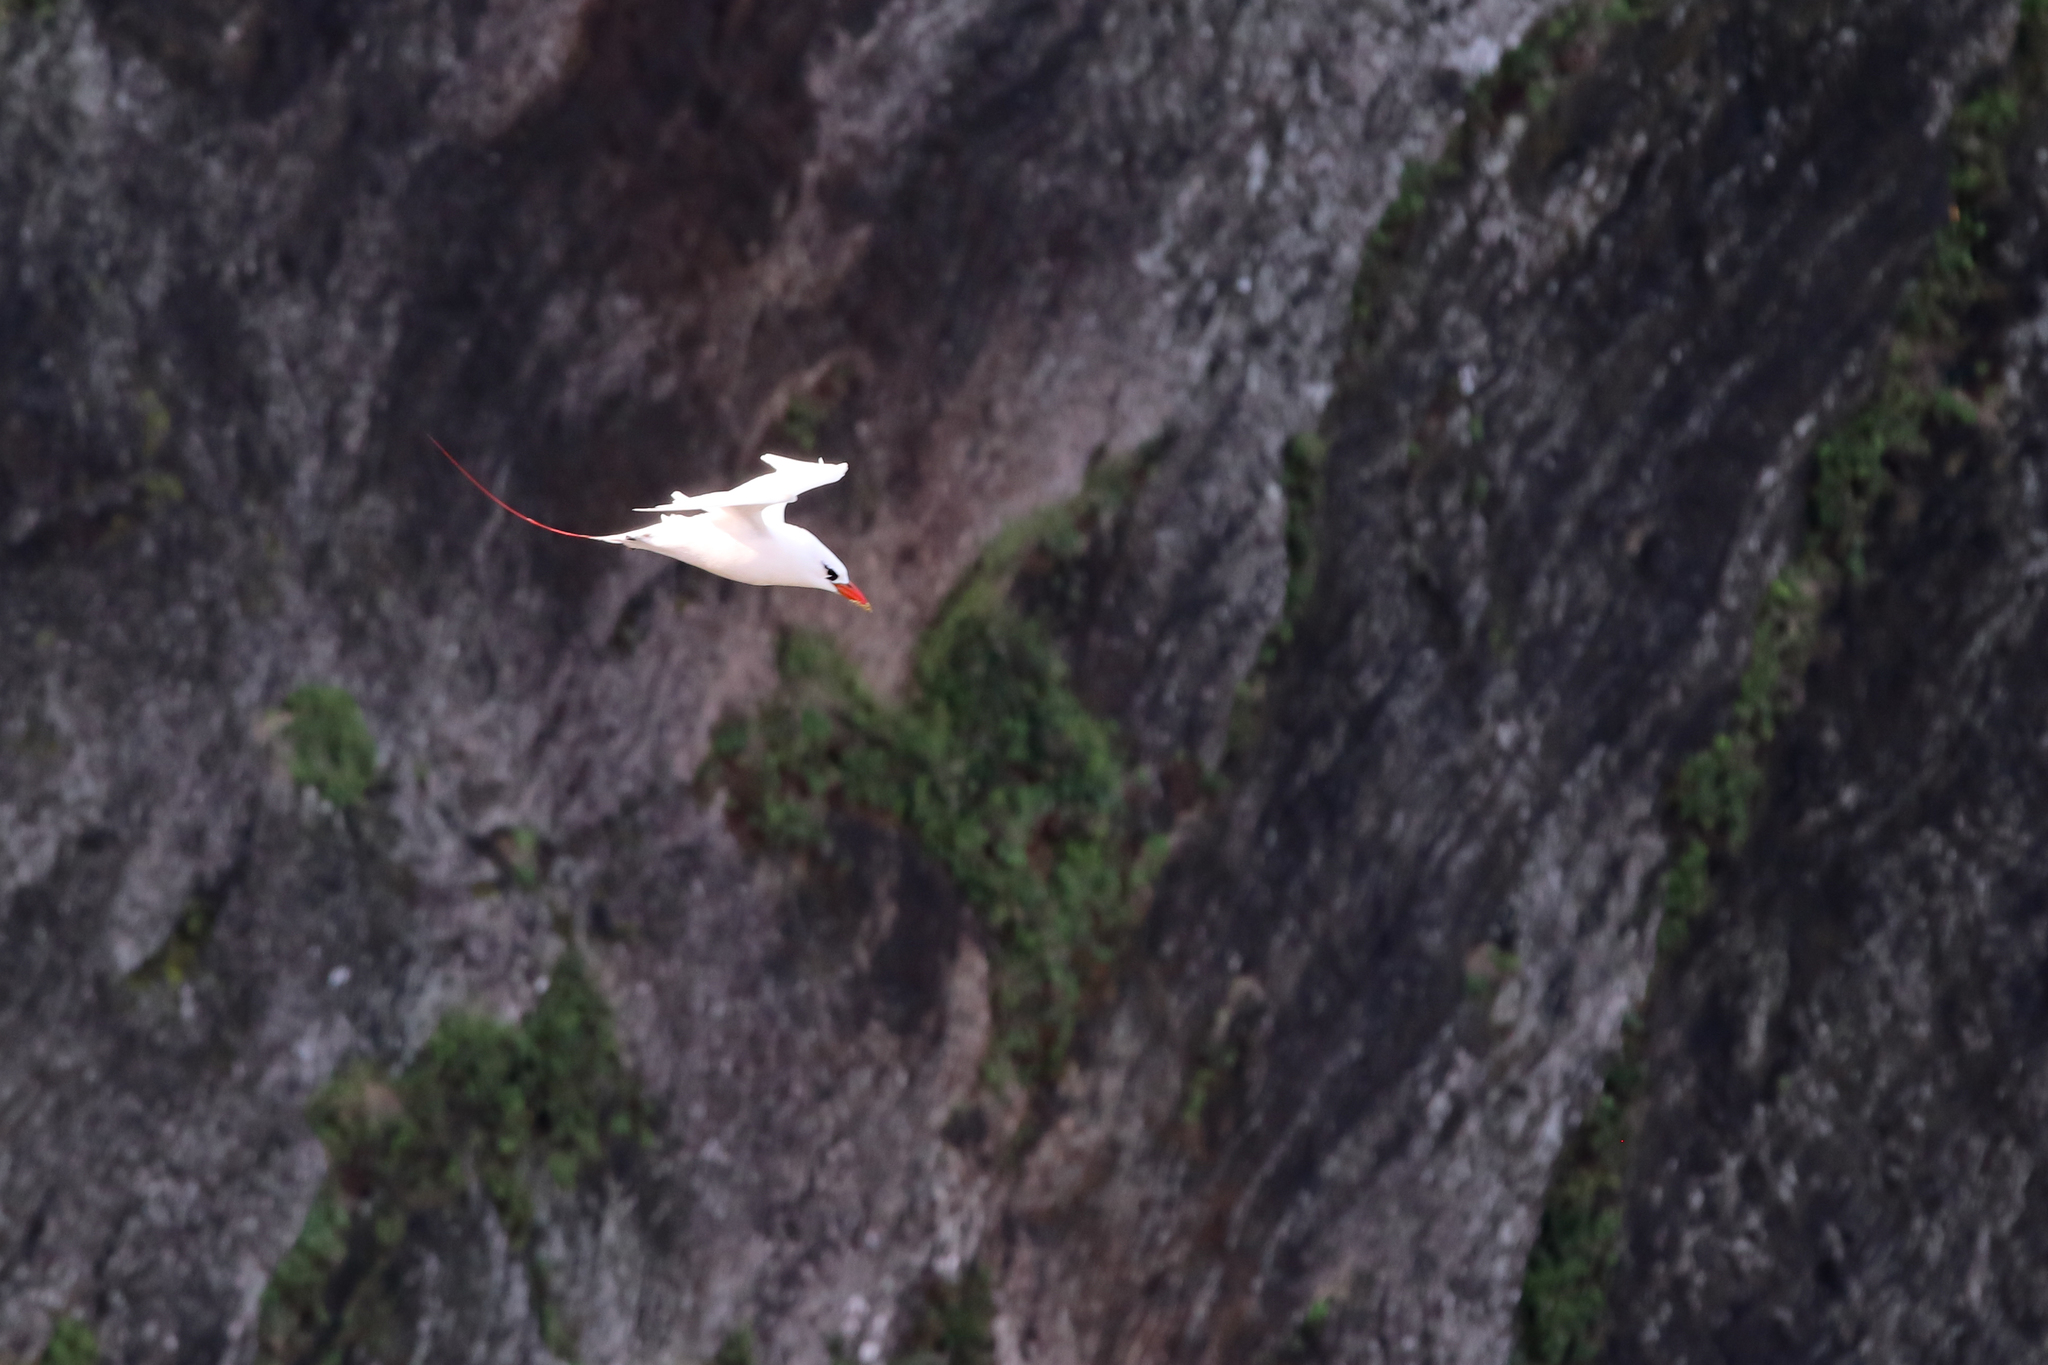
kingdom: Animalia
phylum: Chordata
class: Aves
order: Phaethontiformes
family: Phaethontidae
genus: Phaethon
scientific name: Phaethon rubricauda
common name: Red-tailed tropicbird
